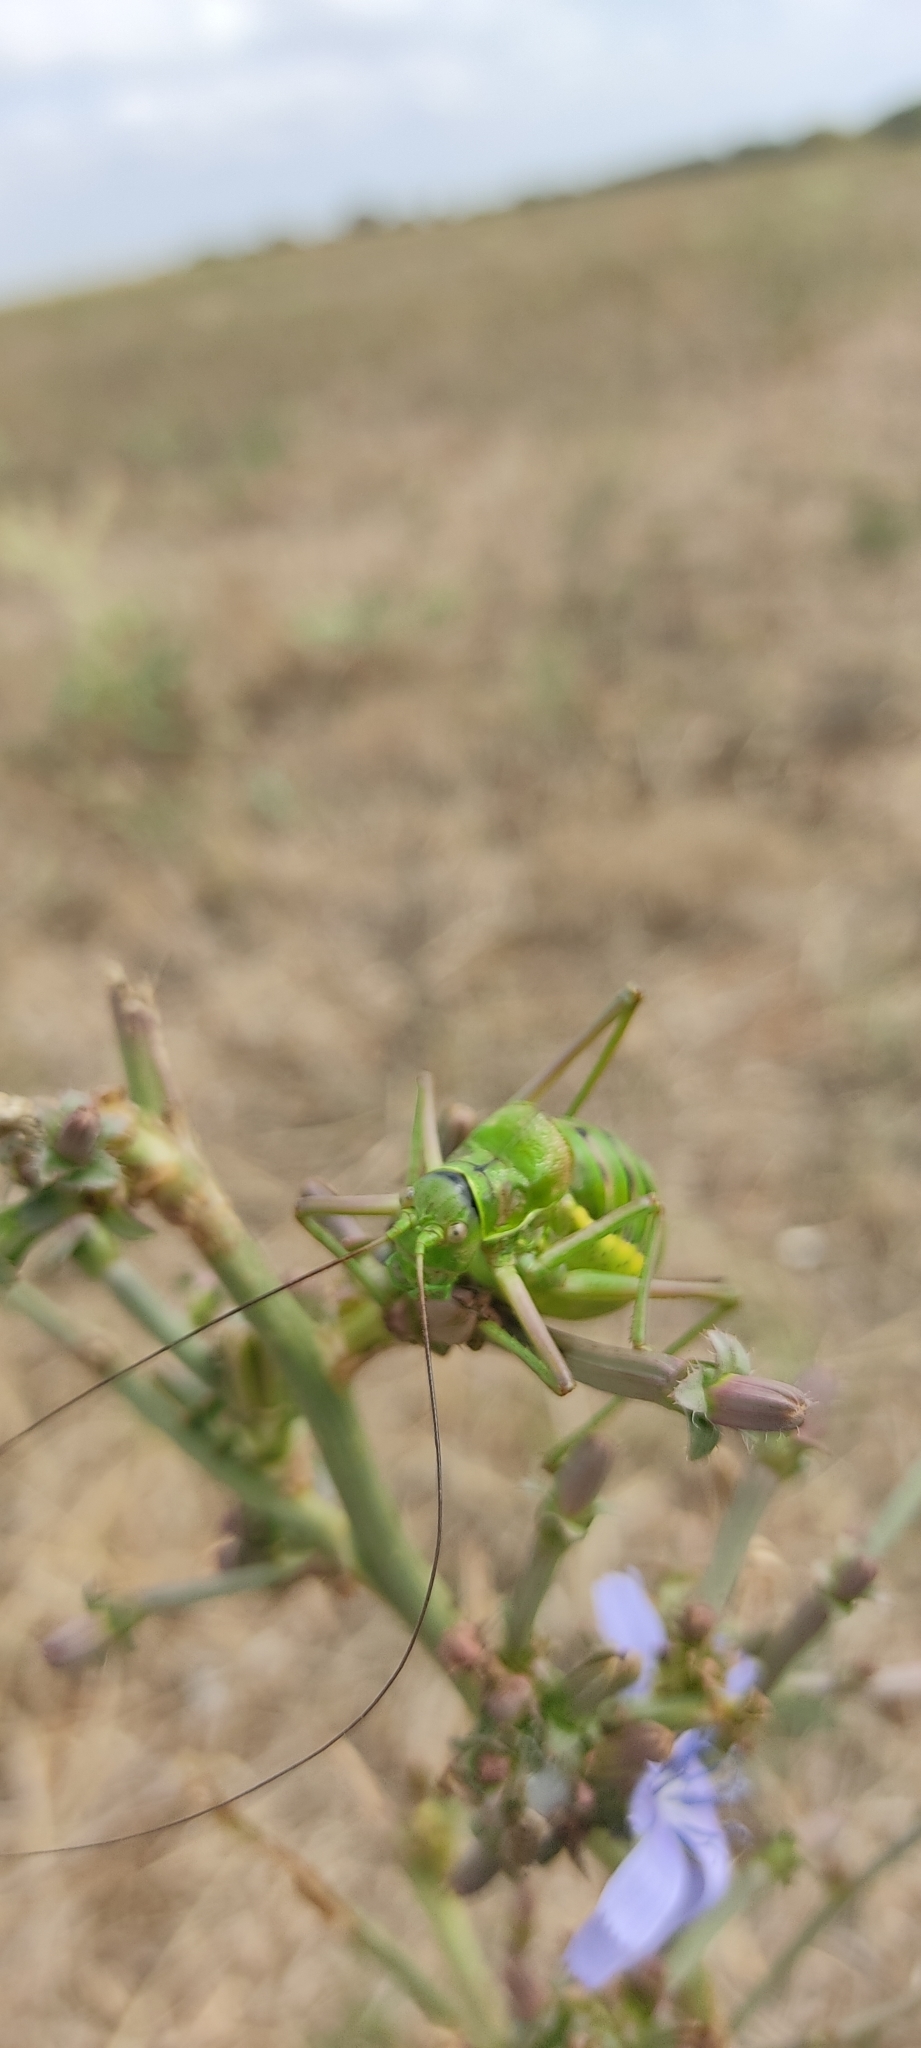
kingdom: Animalia
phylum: Arthropoda
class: Insecta
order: Orthoptera
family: Tettigoniidae
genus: Ephippiger
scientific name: Ephippiger diurnus
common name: Western saddle bush-cricket
